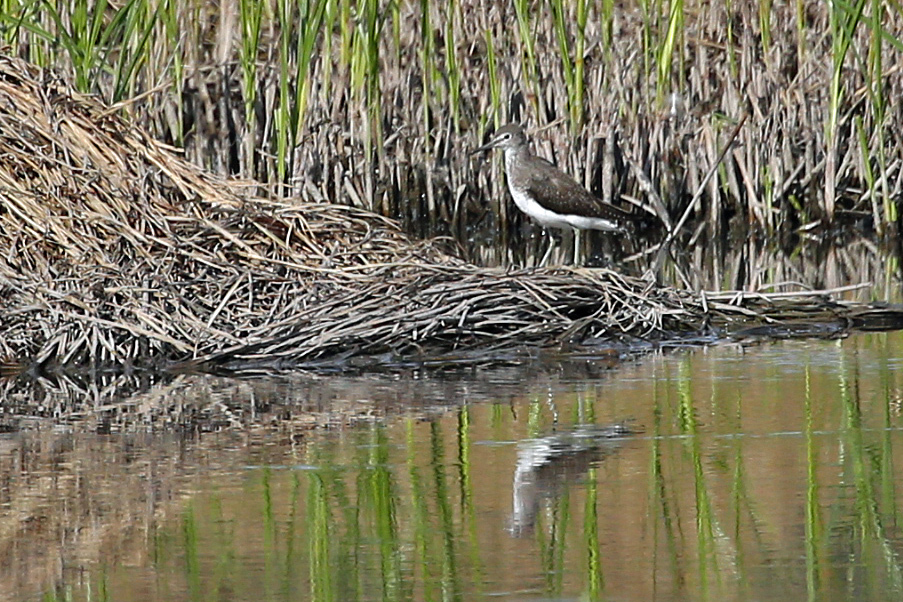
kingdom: Animalia
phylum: Chordata
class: Aves
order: Charadriiformes
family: Scolopacidae
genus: Tringa
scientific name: Tringa ochropus
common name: Green sandpiper
